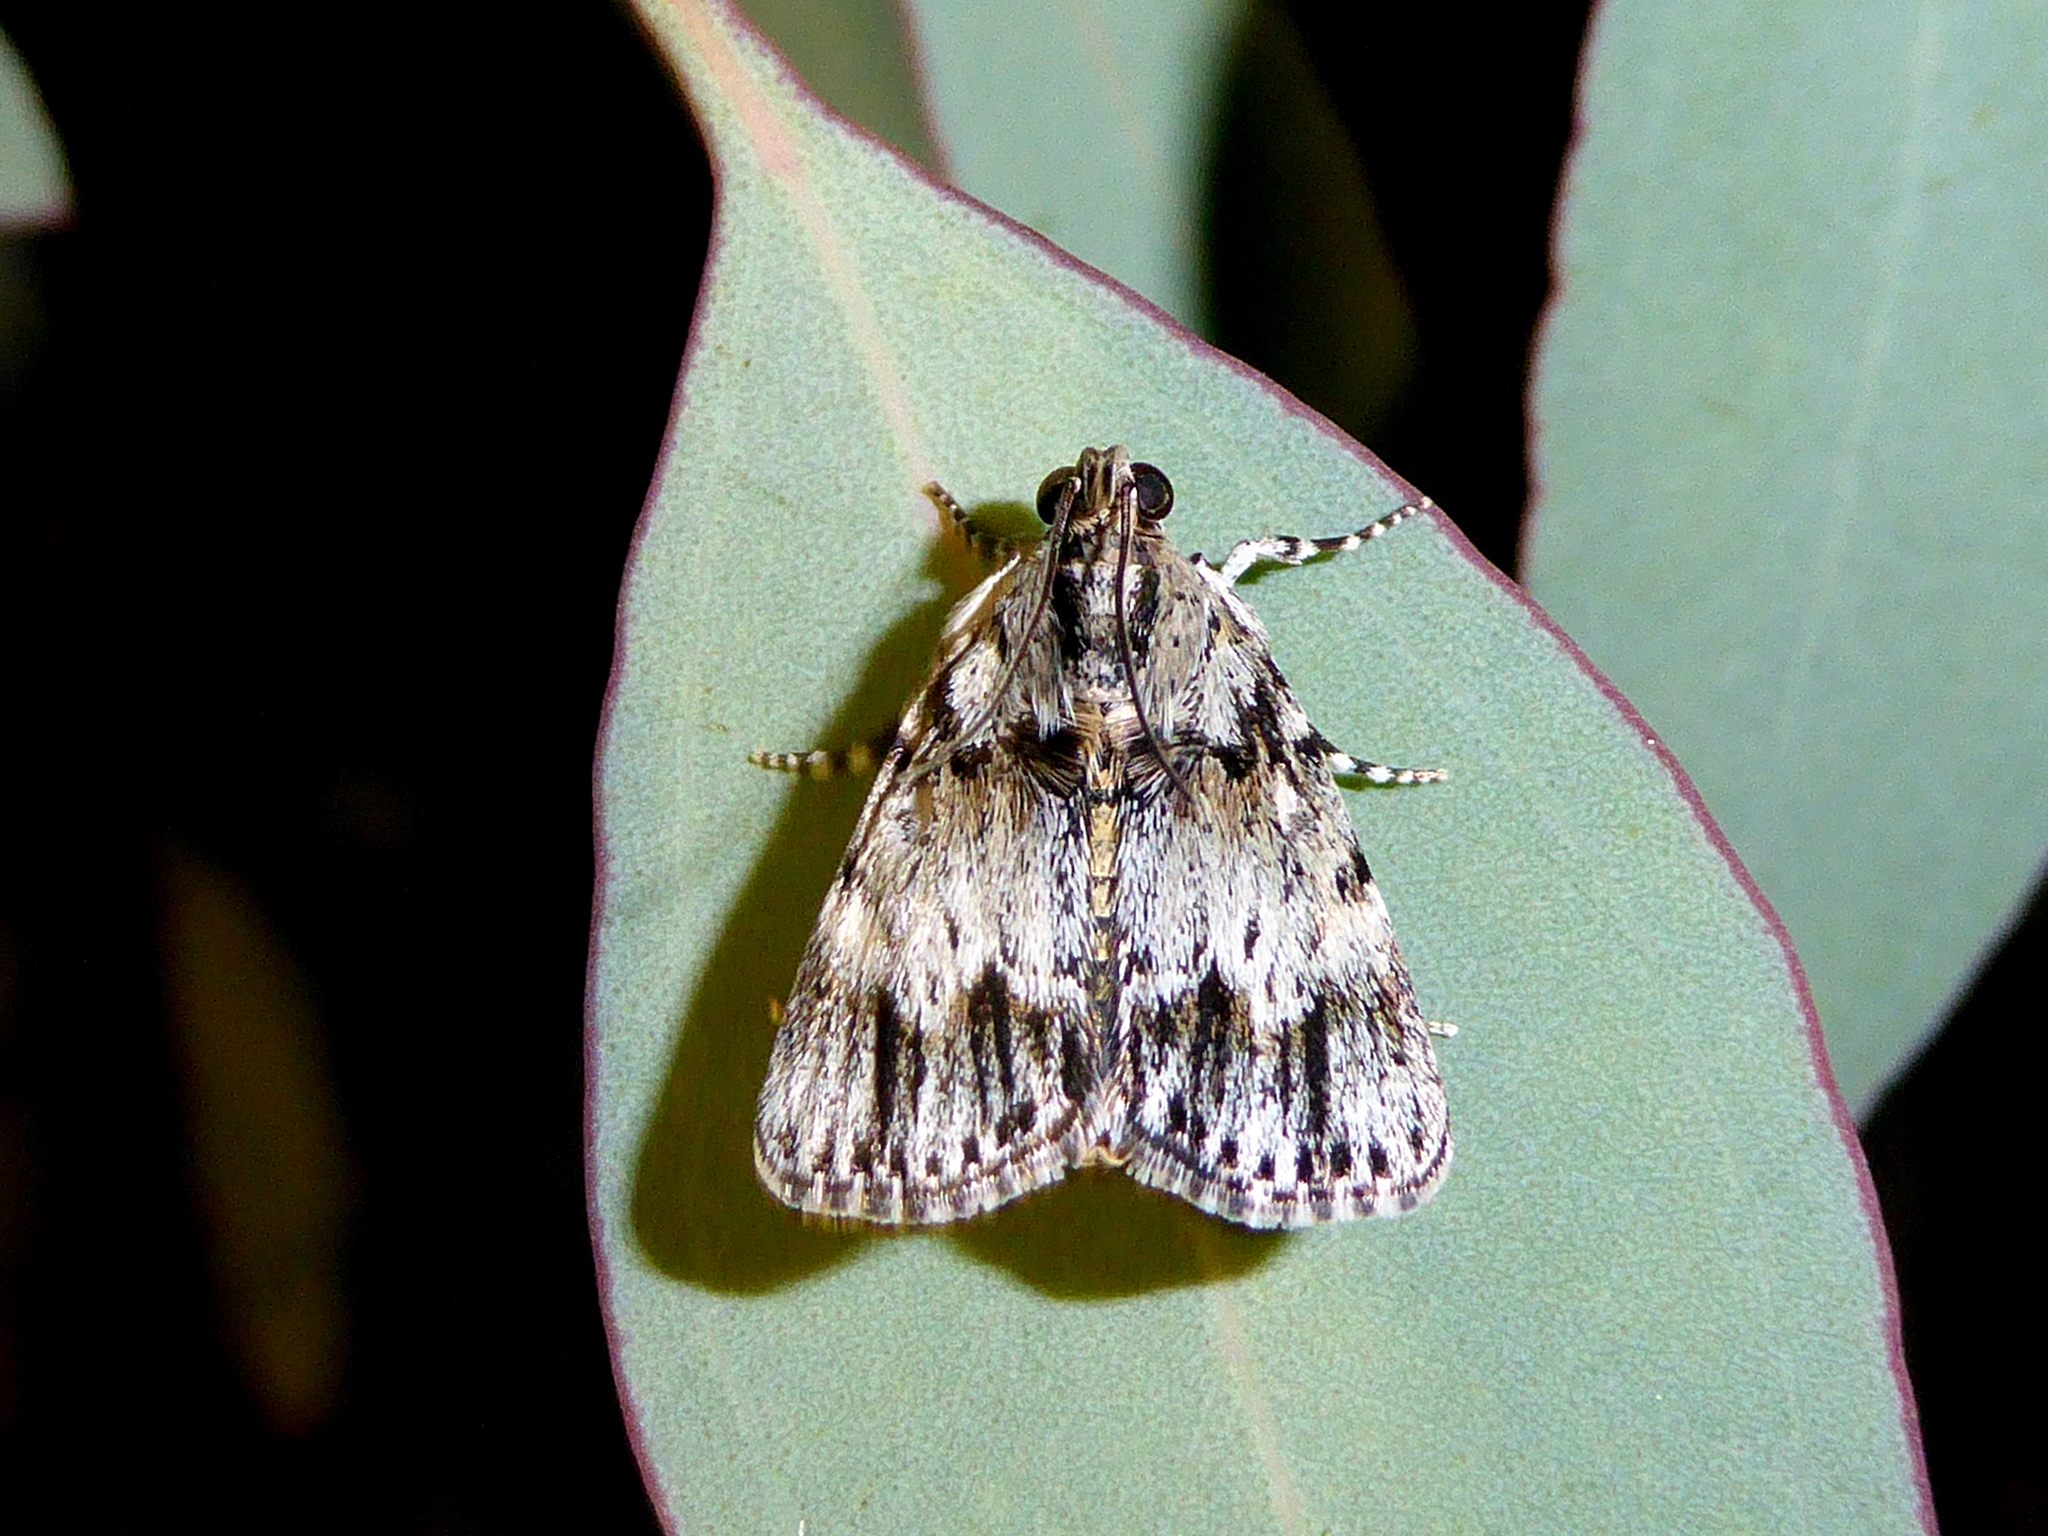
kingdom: Animalia
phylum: Arthropoda
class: Insecta
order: Lepidoptera
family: Pyralidae
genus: Spectrotrota
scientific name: Spectrotrota fimbrialis
